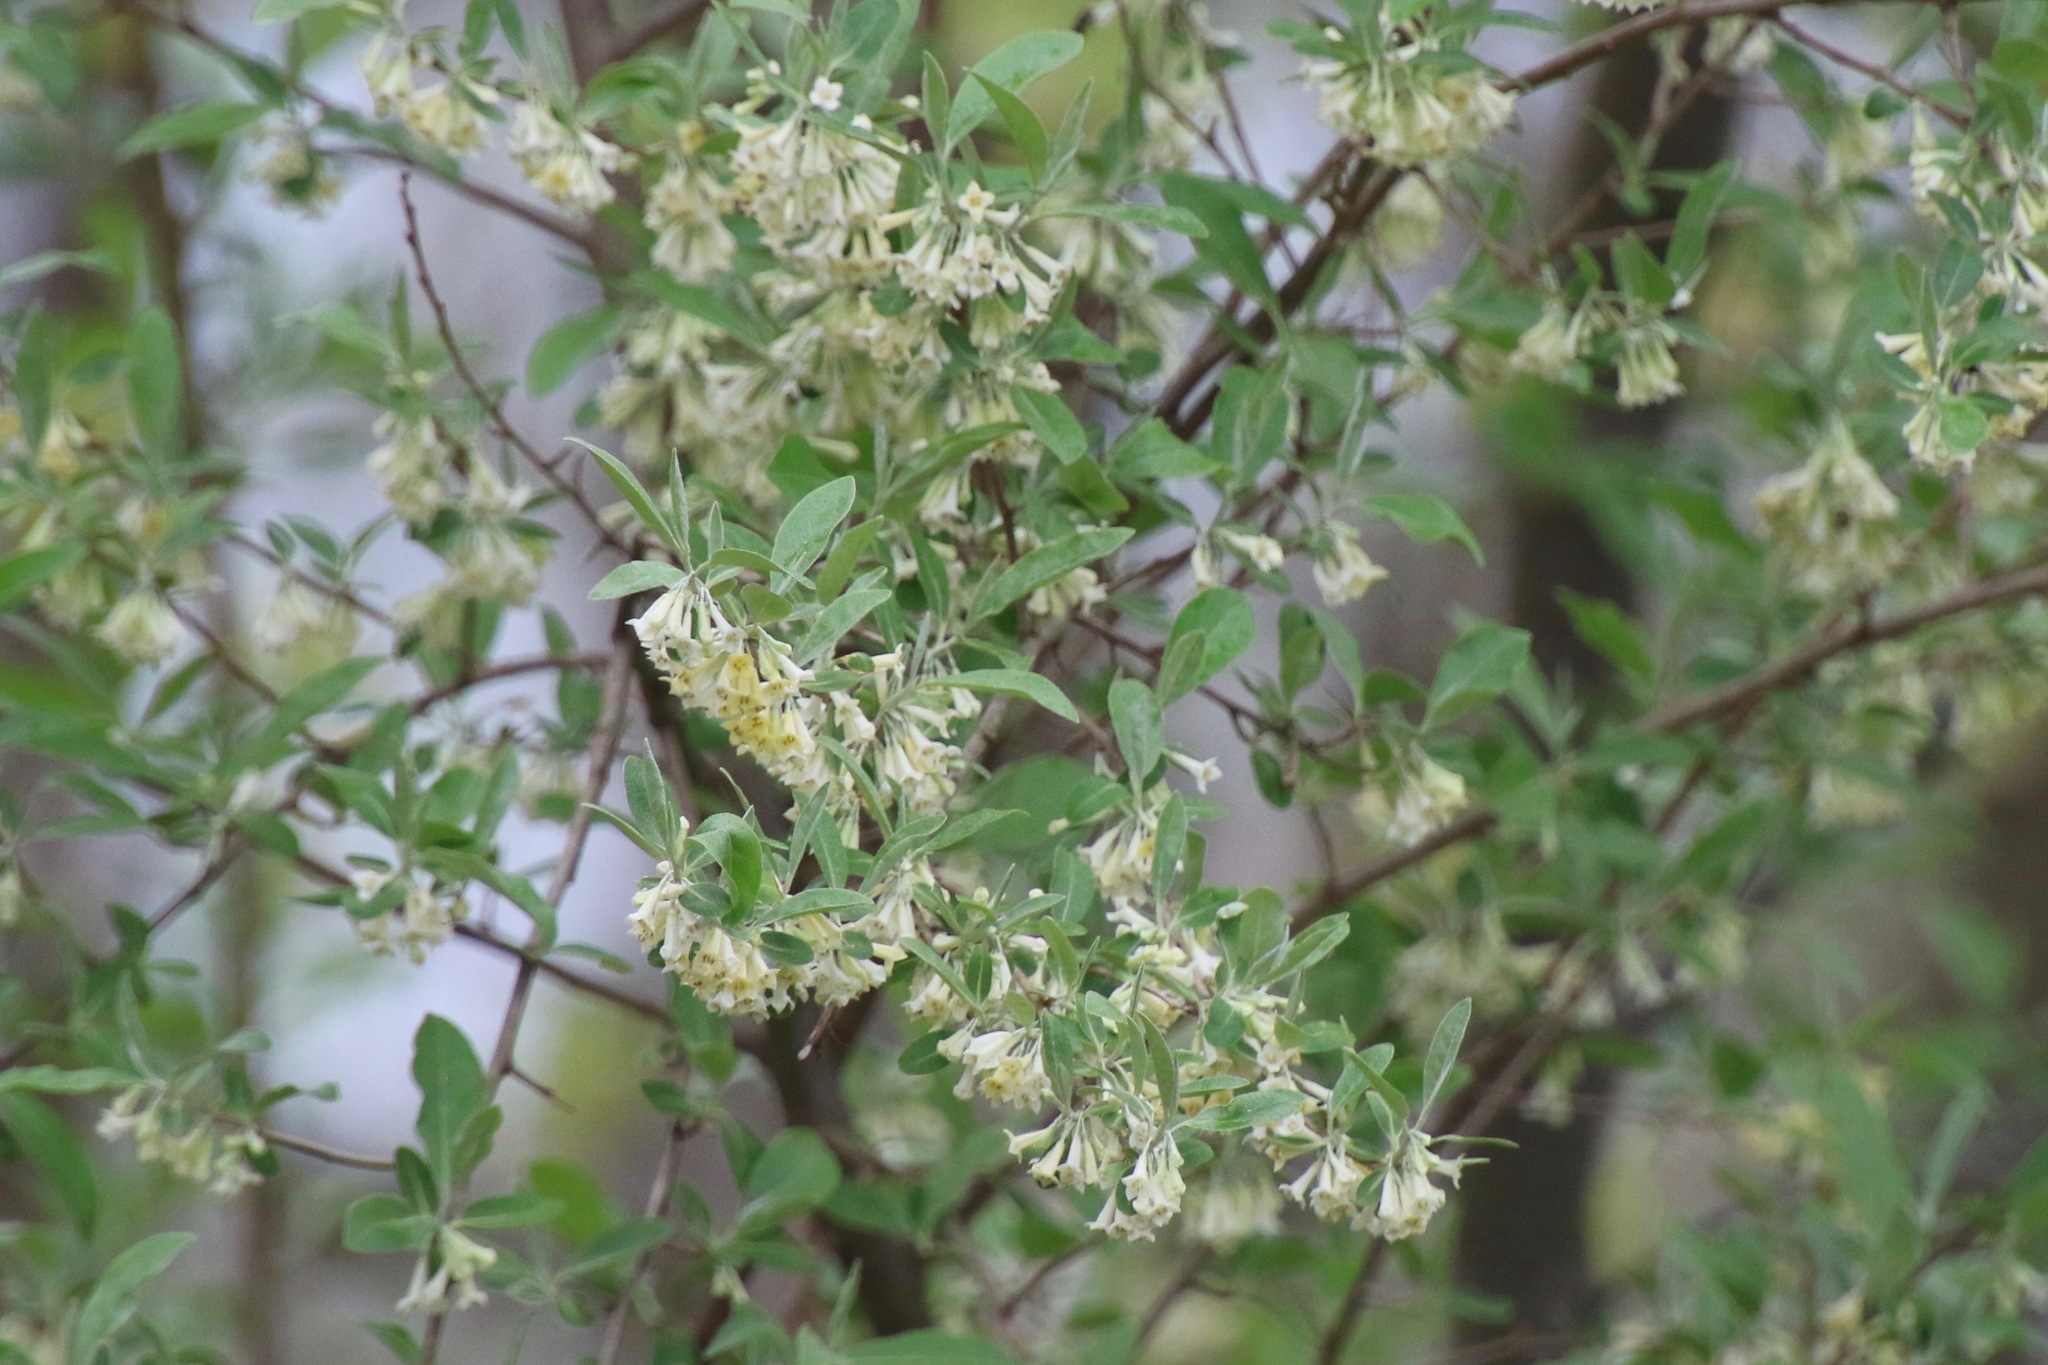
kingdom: Plantae
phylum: Tracheophyta
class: Magnoliopsida
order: Rosales
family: Elaeagnaceae
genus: Elaeagnus
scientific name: Elaeagnus umbellata
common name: Autumn olive
